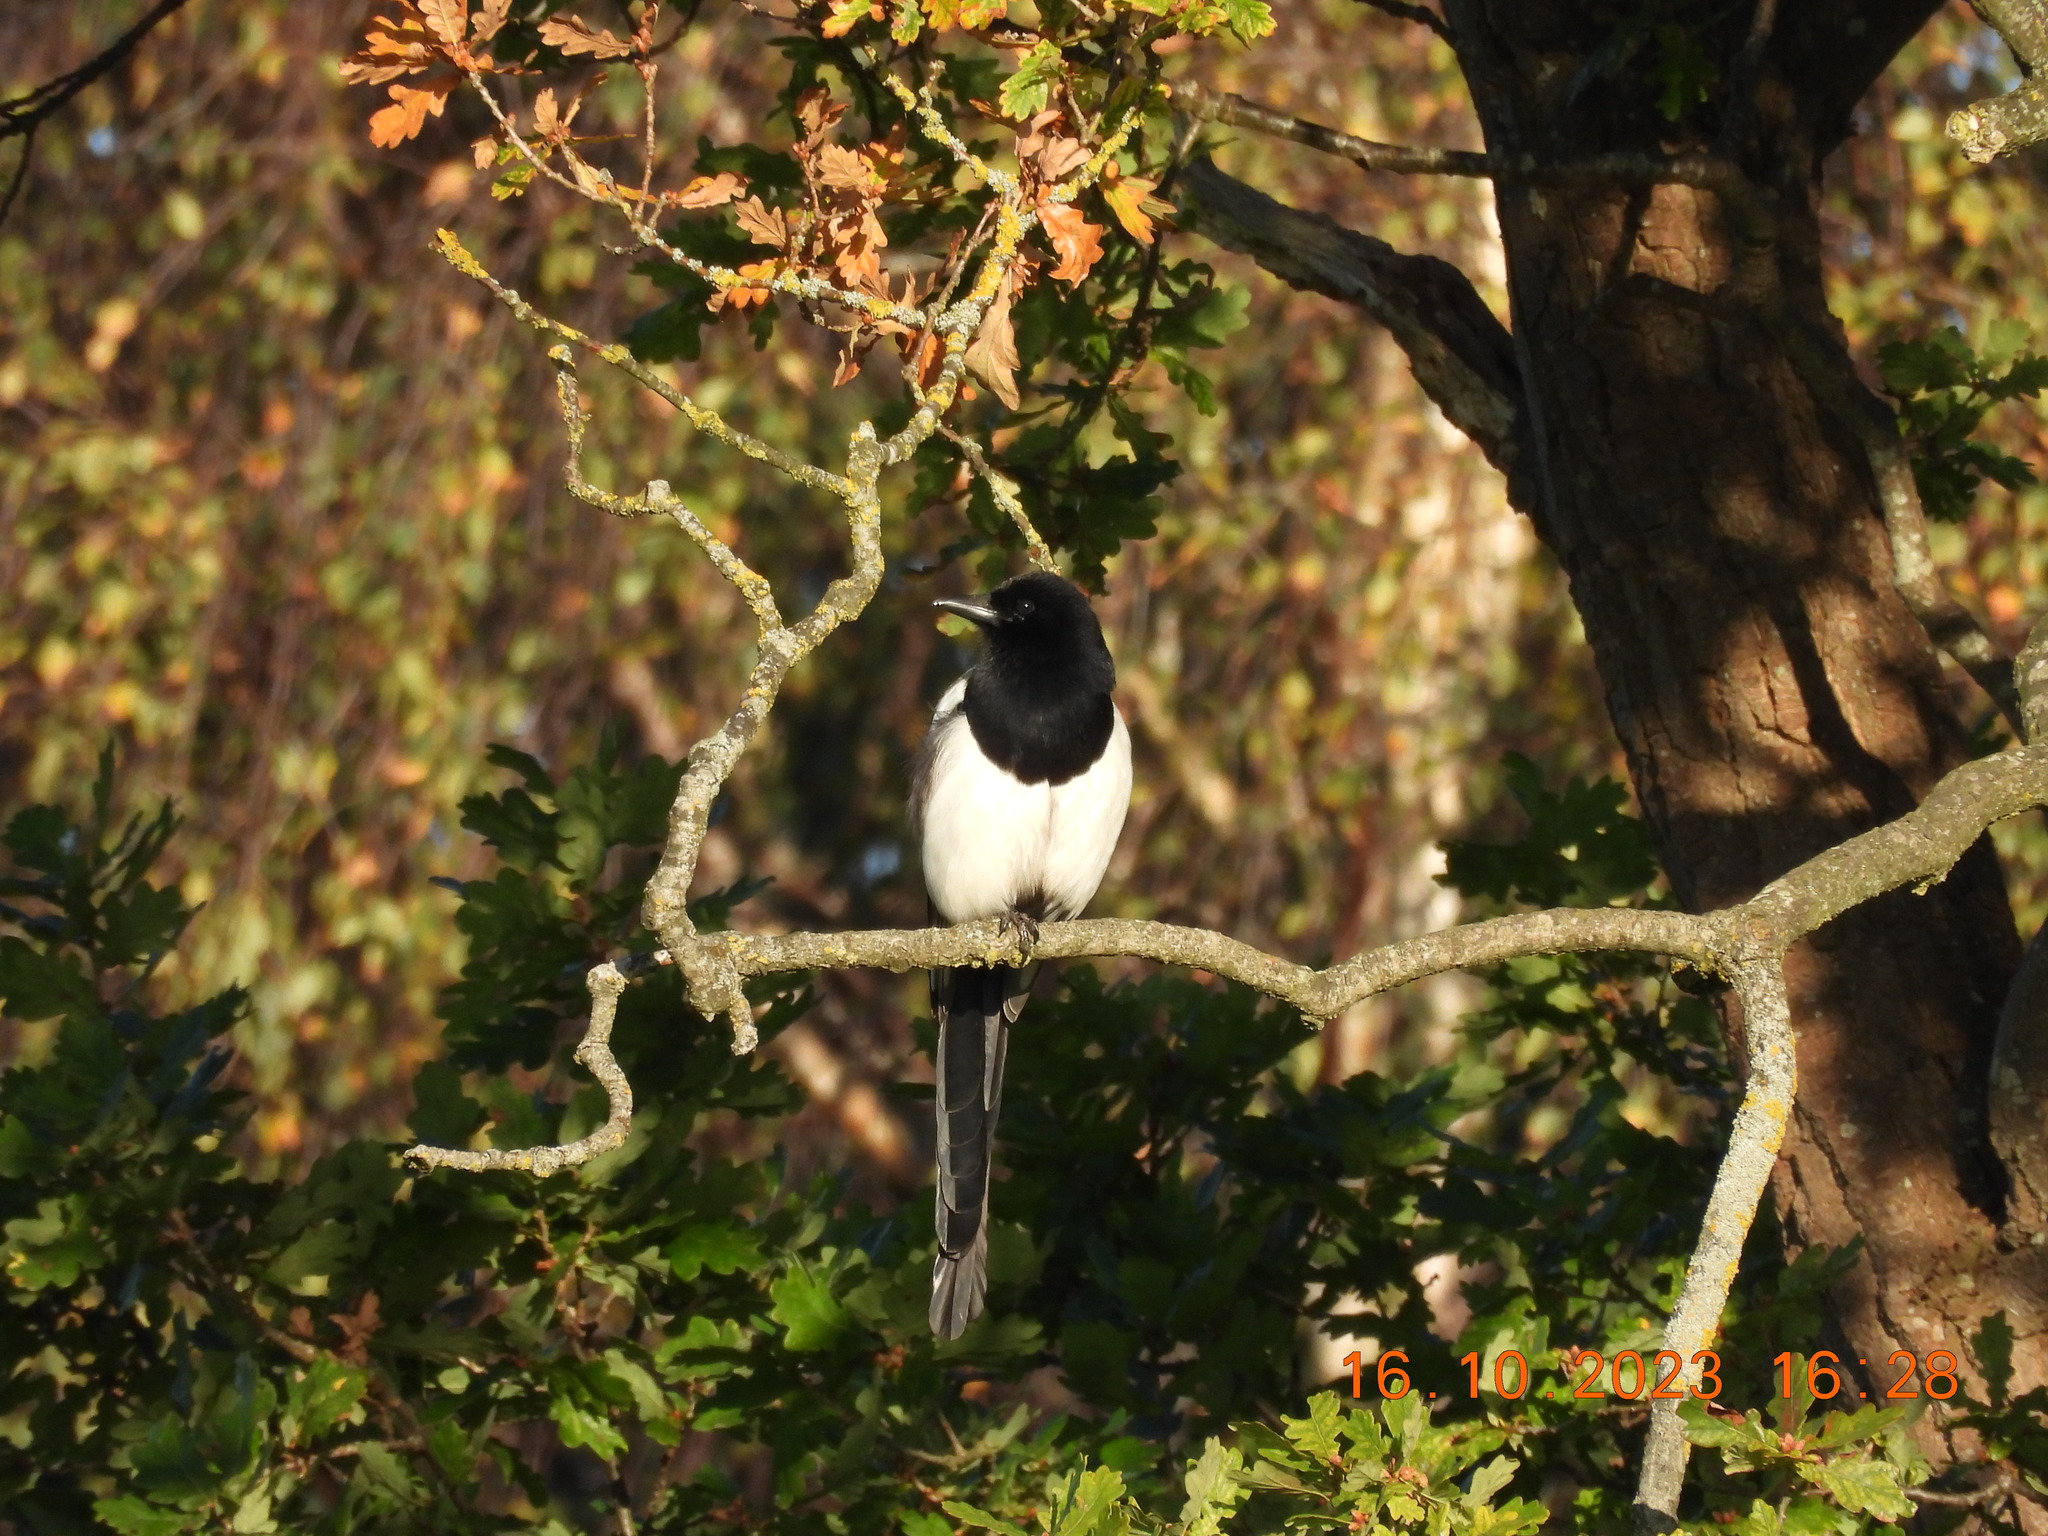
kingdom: Animalia
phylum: Chordata
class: Aves
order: Passeriformes
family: Corvidae
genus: Pica
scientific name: Pica pica
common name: Eurasian magpie
